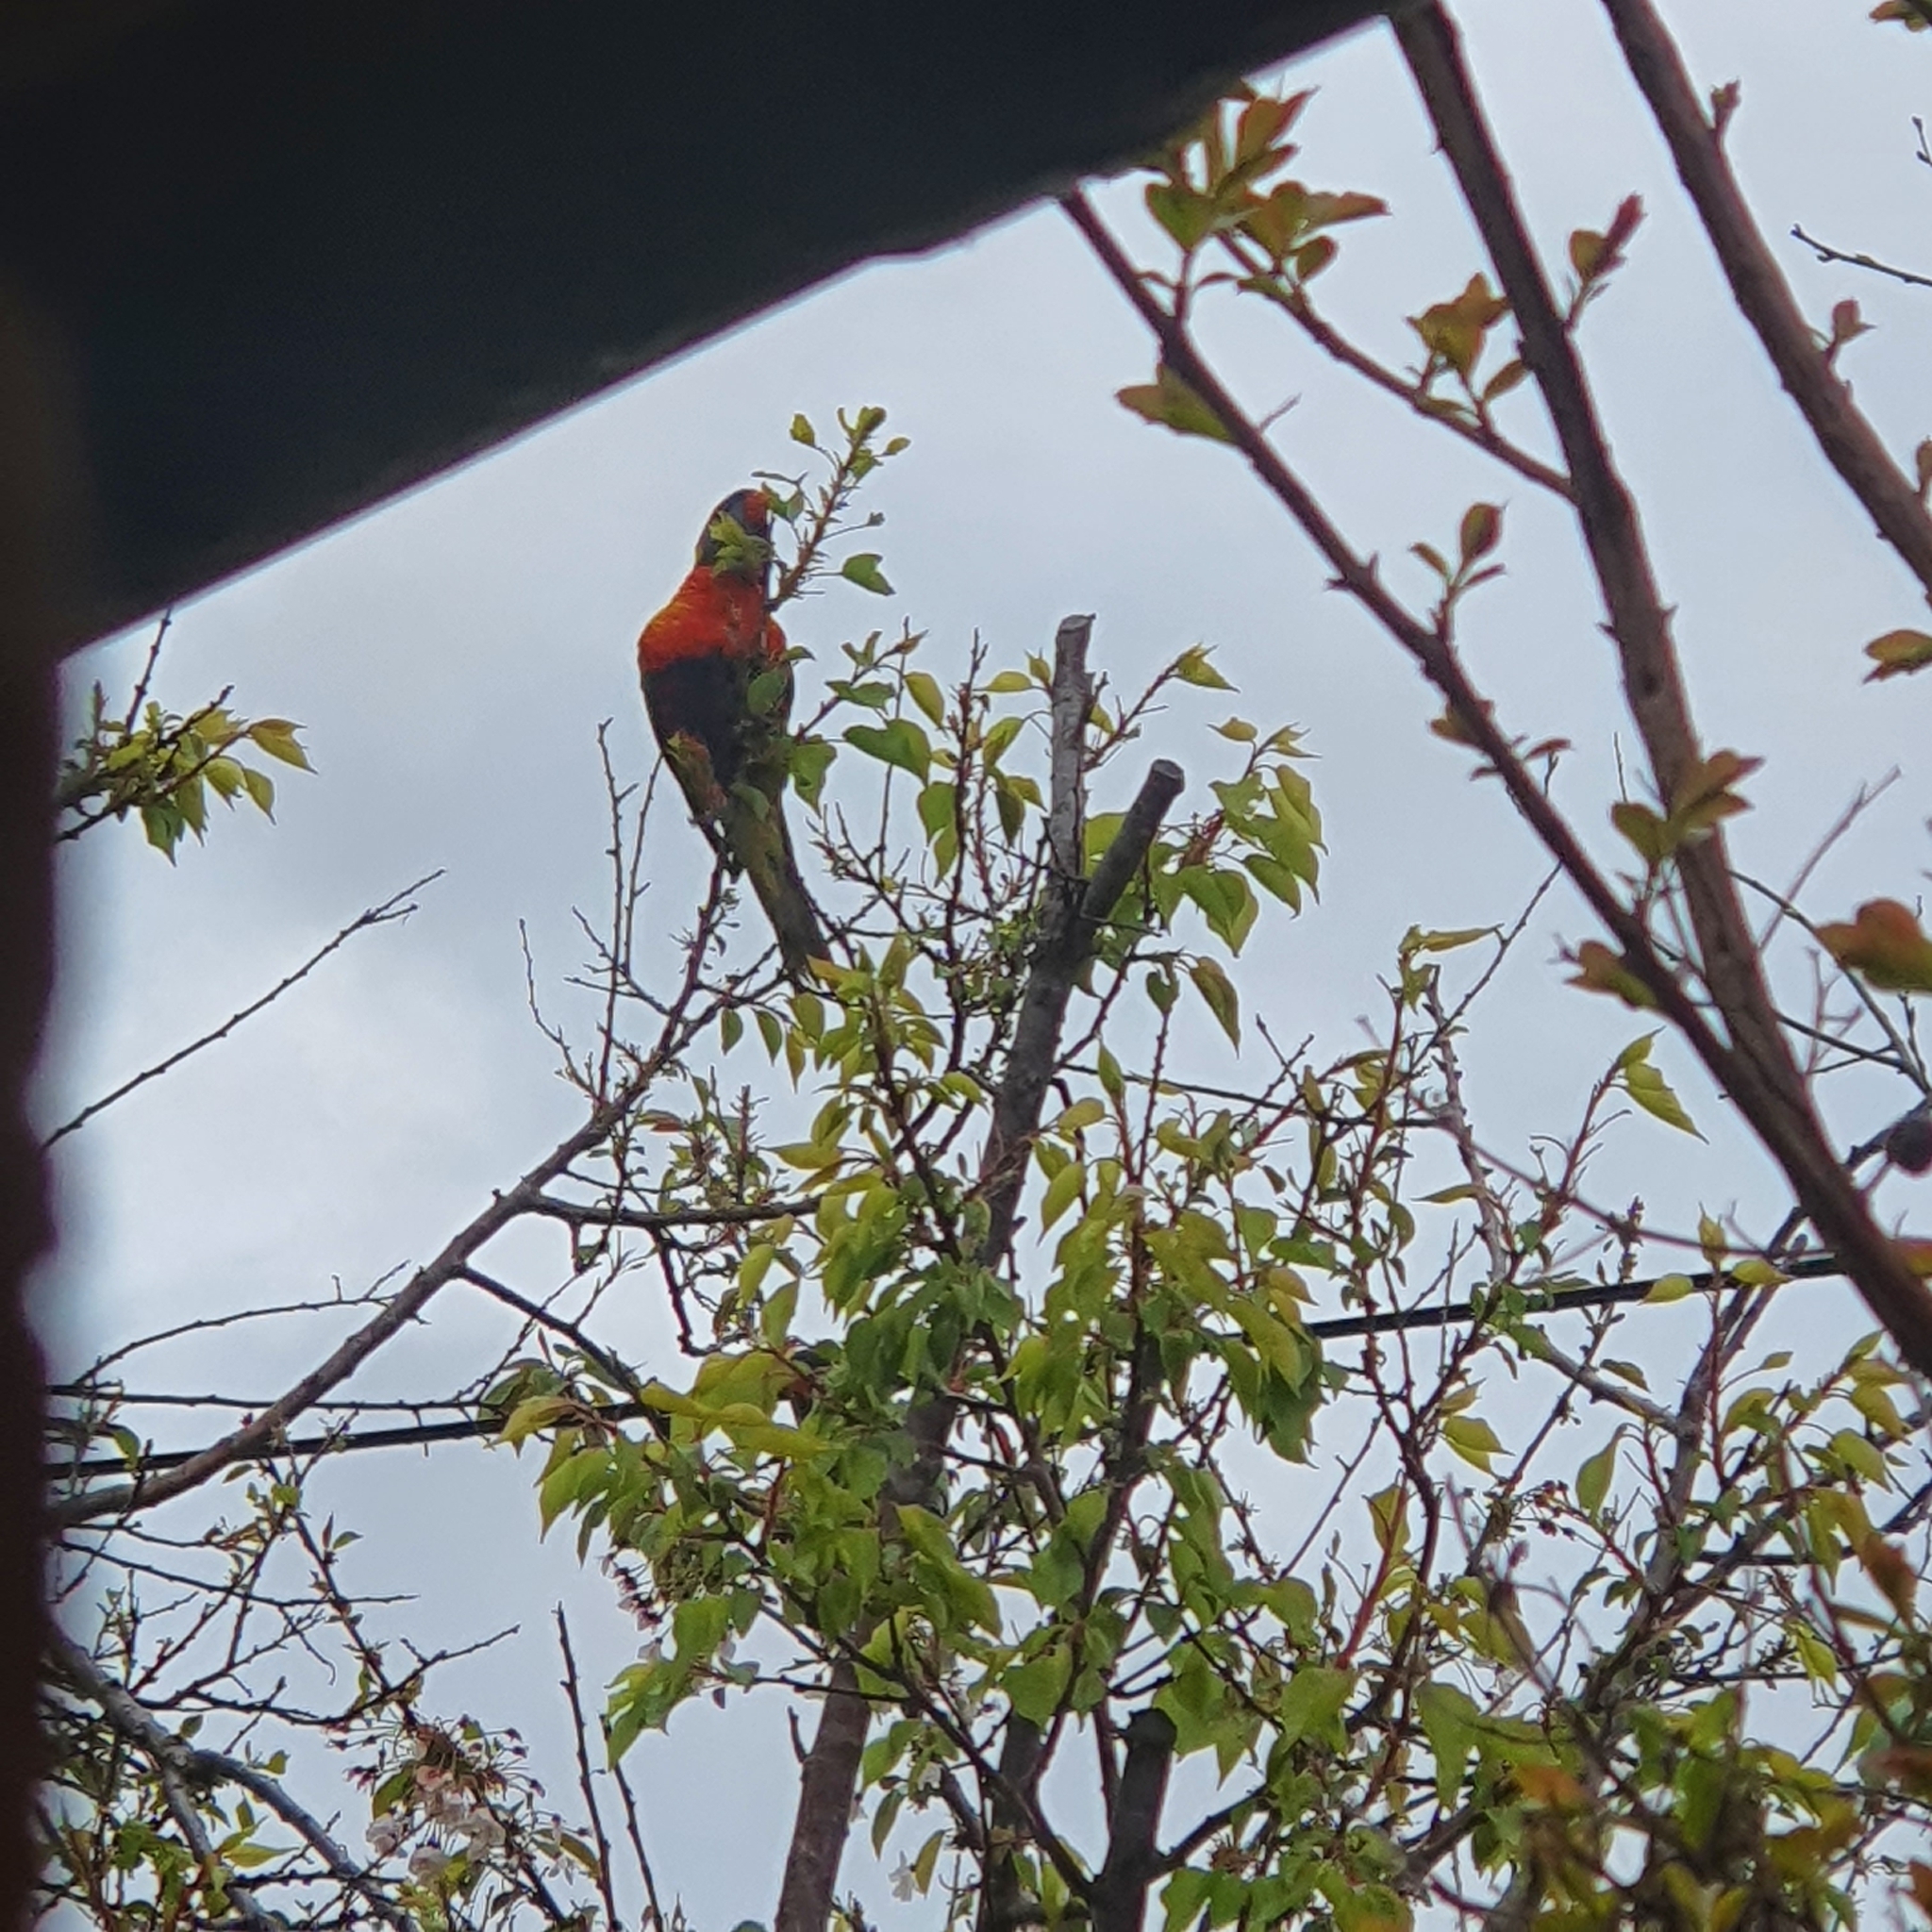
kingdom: Animalia
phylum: Chordata
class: Aves
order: Psittaciformes
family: Psittacidae
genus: Trichoglossus
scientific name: Trichoglossus haematodus
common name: Coconut lorikeet
